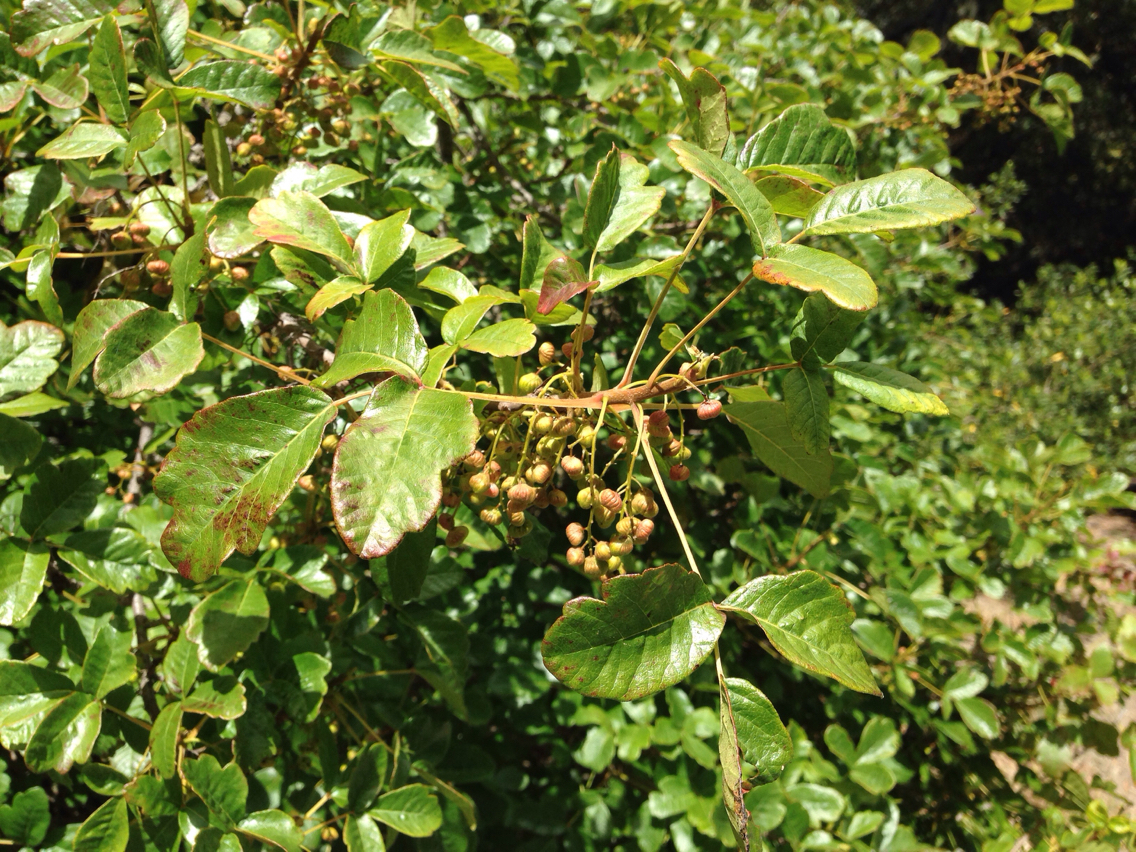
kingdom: Plantae
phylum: Tracheophyta
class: Magnoliopsida
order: Sapindales
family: Anacardiaceae
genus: Toxicodendron
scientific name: Toxicodendron diversilobum
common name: Pacific poison-oak
